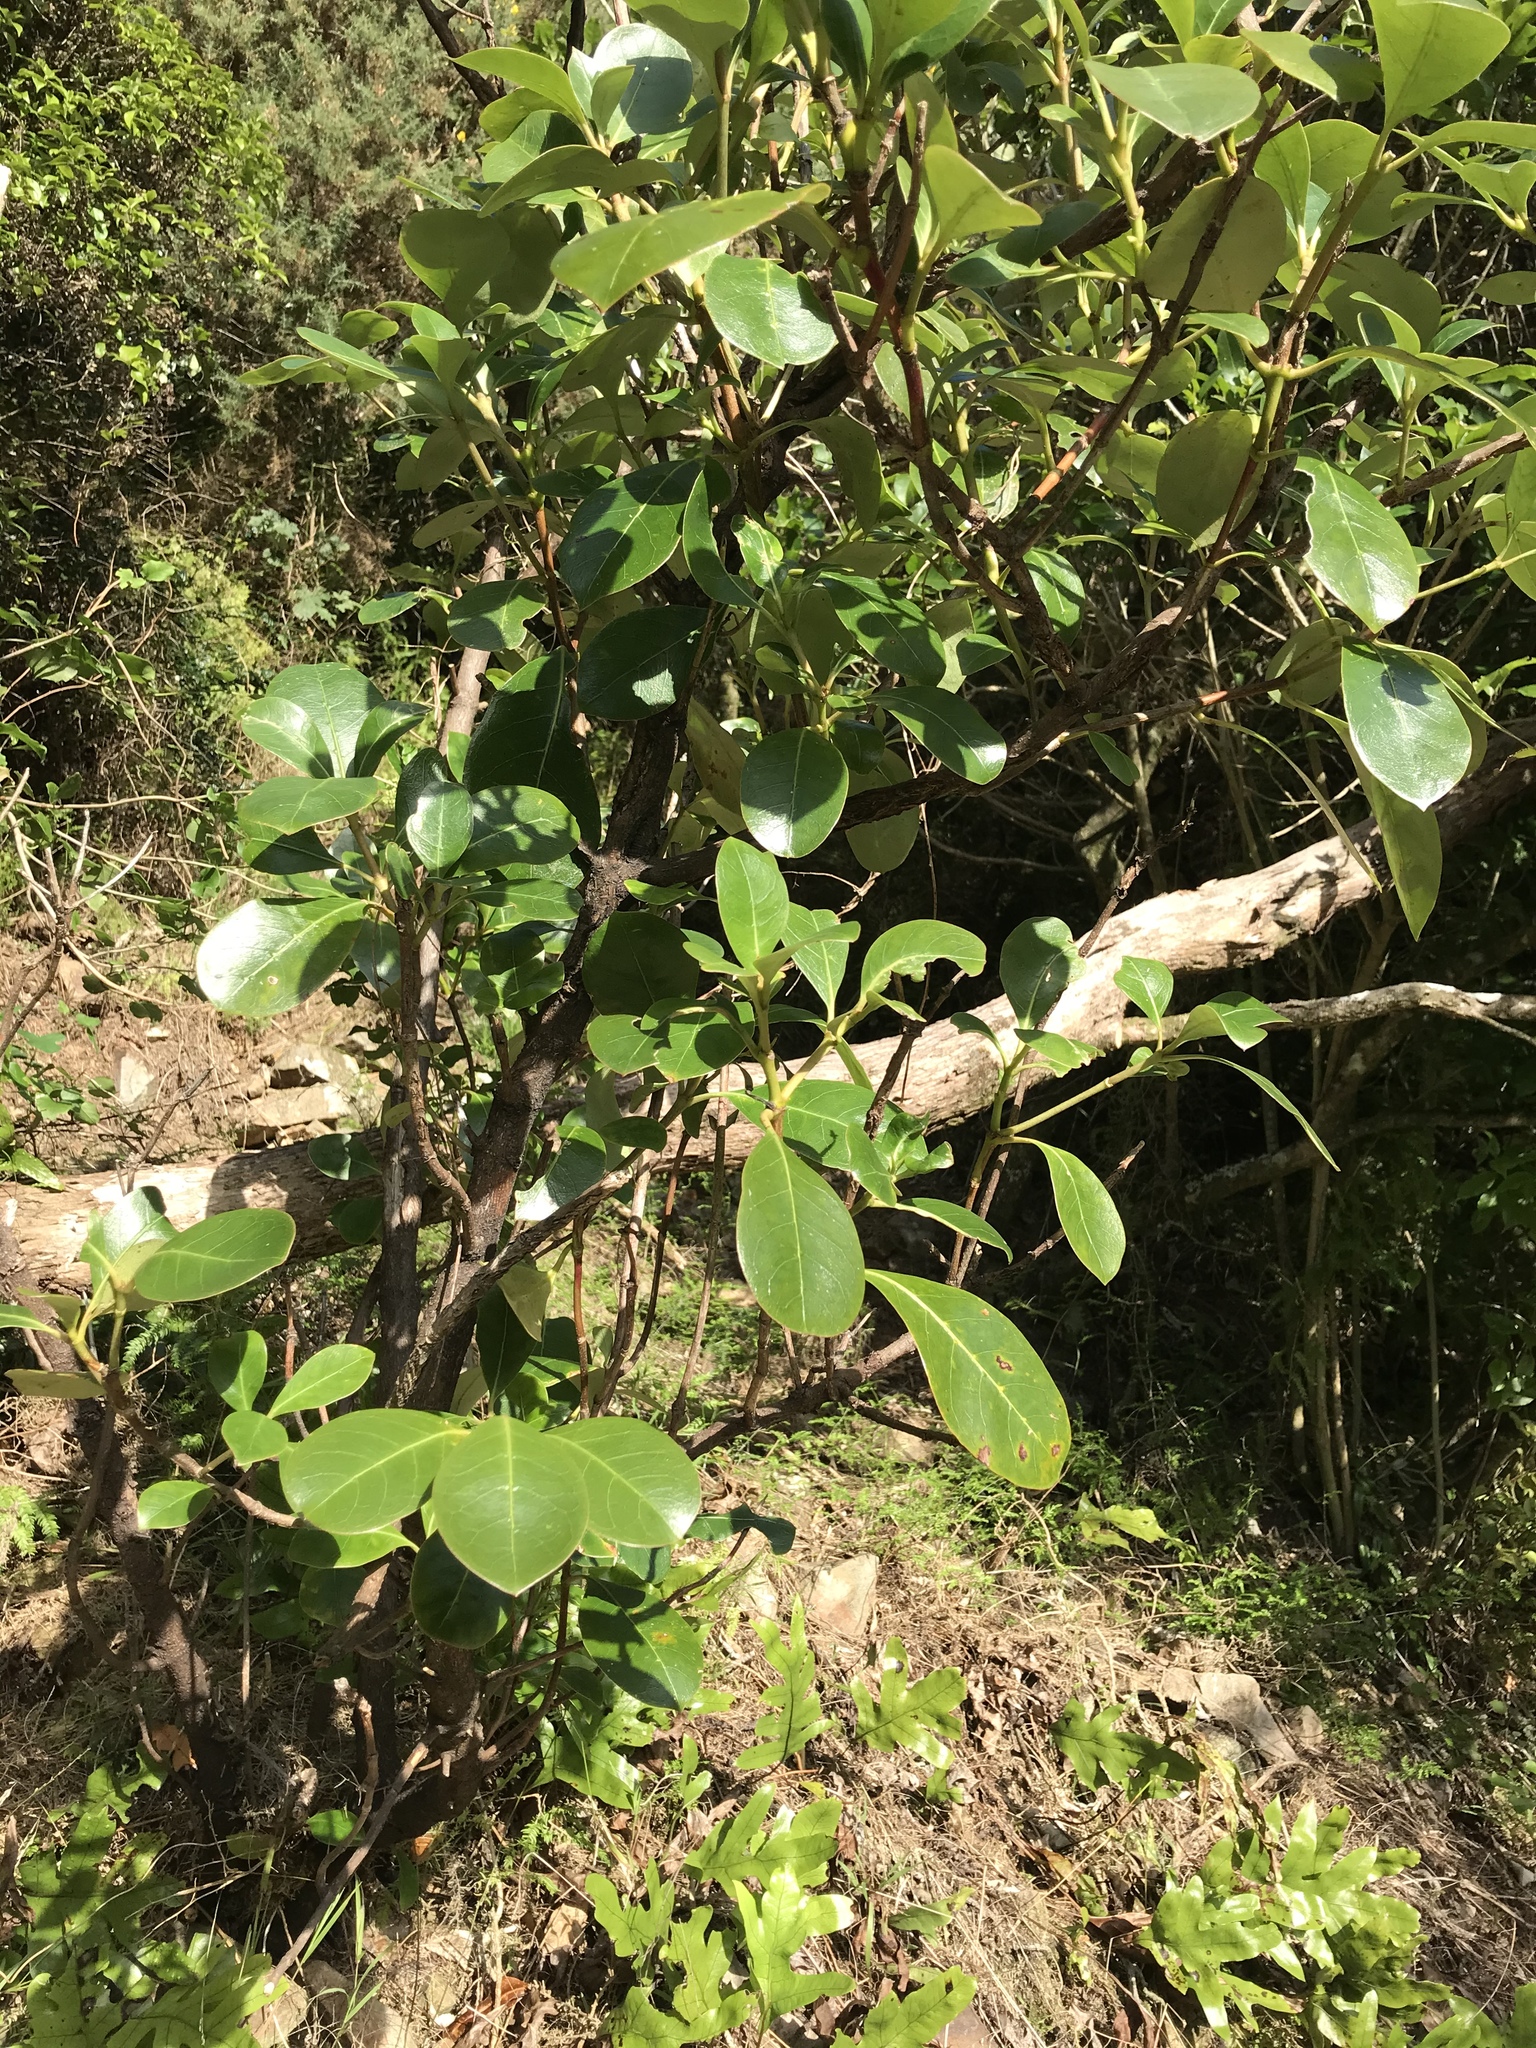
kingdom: Plantae
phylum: Tracheophyta
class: Magnoliopsida
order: Gentianales
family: Rubiaceae
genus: Coprosma
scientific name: Coprosma lucida
